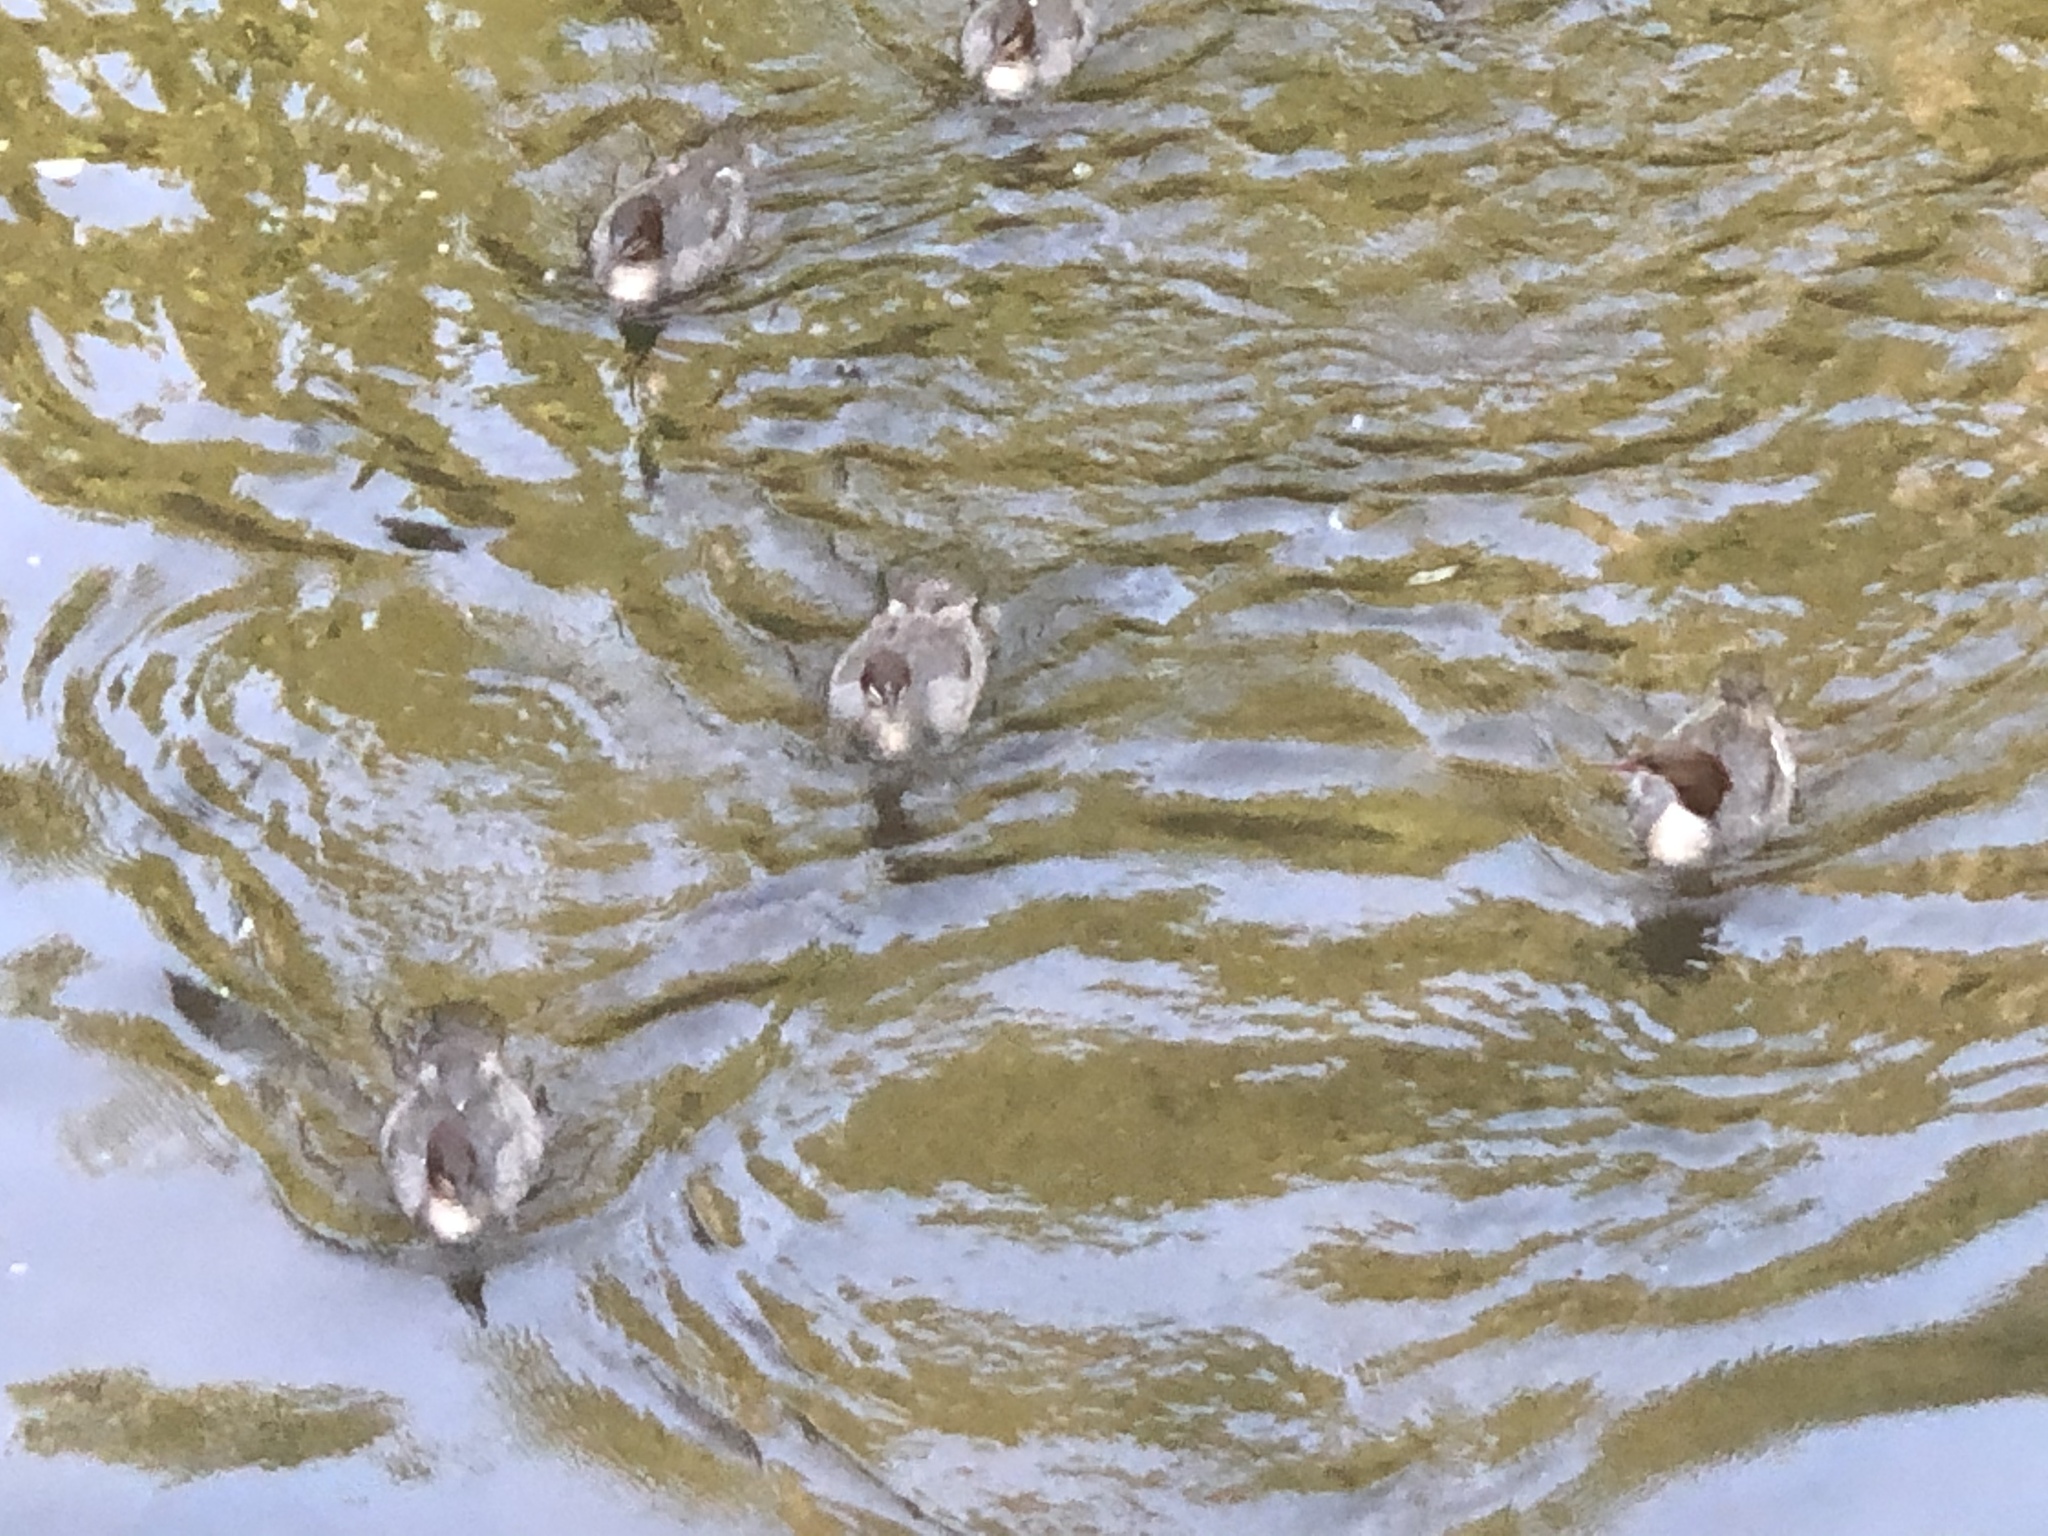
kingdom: Animalia
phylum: Chordata
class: Aves
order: Anseriformes
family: Anatidae
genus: Mergus
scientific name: Mergus merganser
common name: Common merganser
